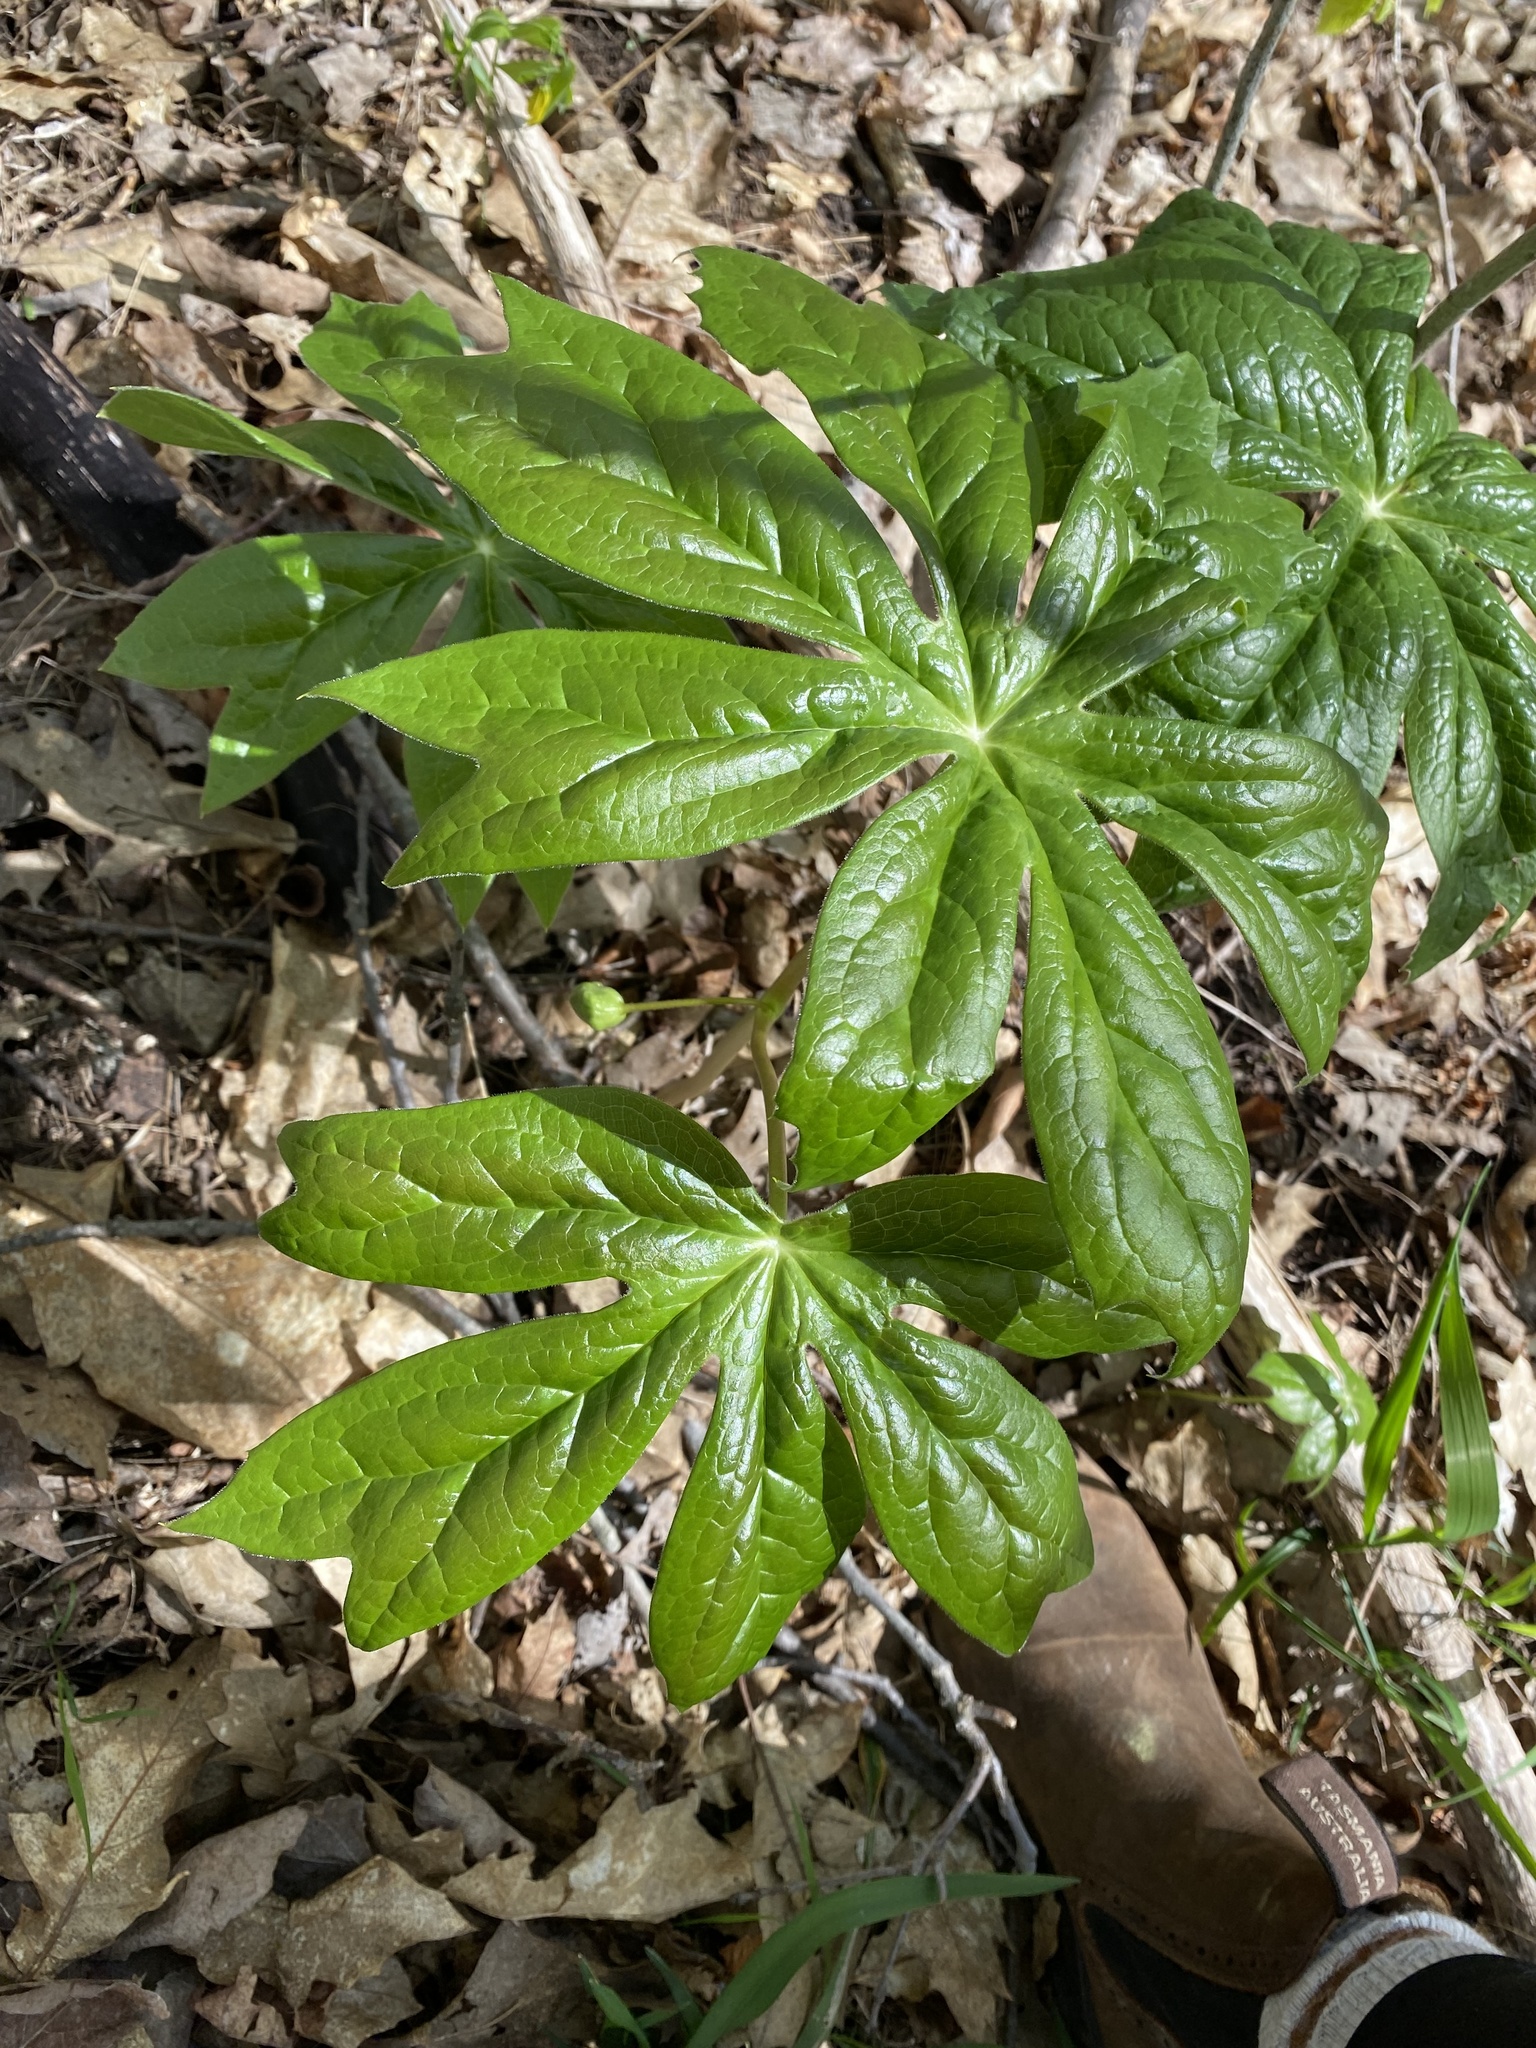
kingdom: Plantae
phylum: Tracheophyta
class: Magnoliopsida
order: Ranunculales
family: Berberidaceae
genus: Podophyllum
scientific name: Podophyllum peltatum
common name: Wild mandrake
